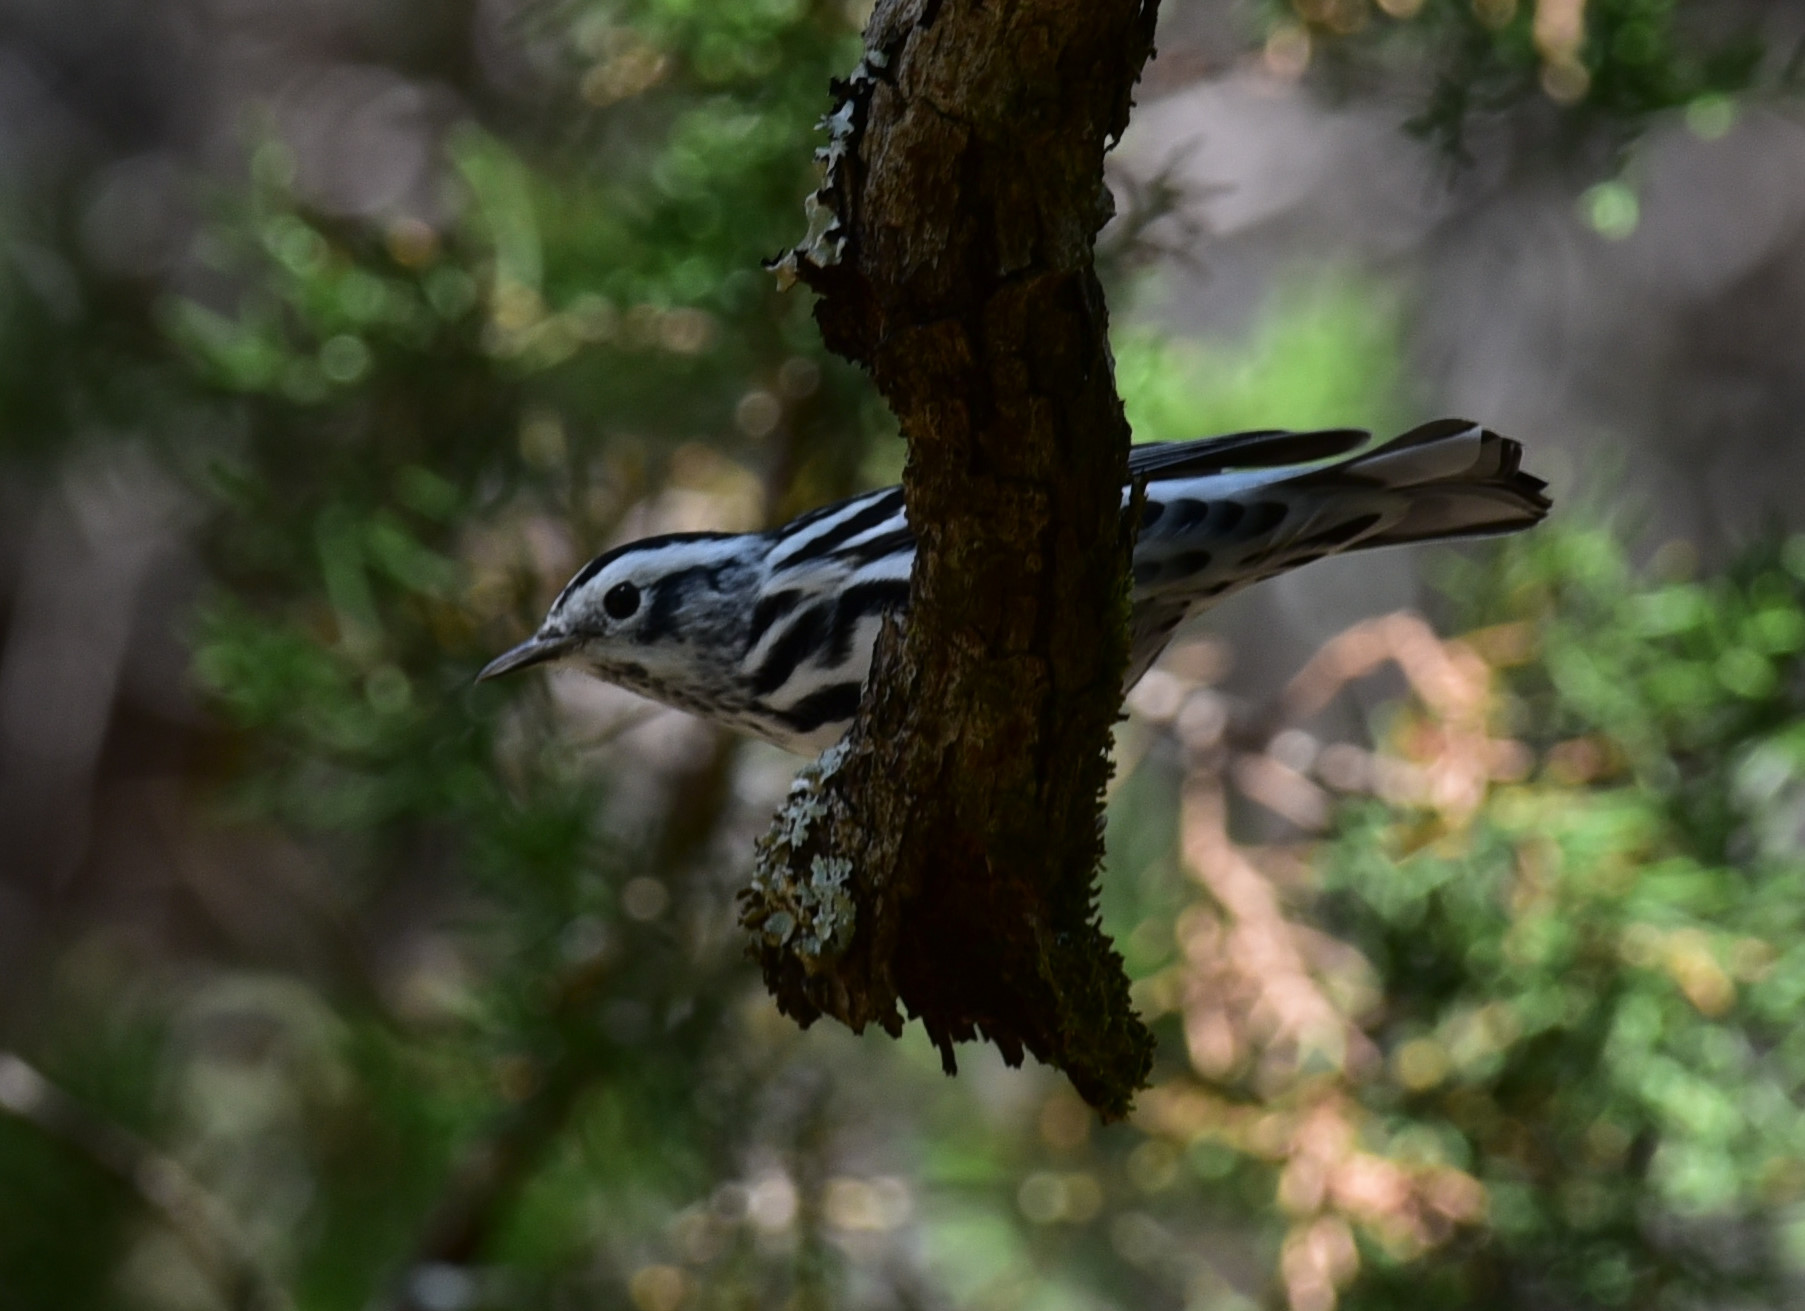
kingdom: Animalia
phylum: Chordata
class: Aves
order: Passeriformes
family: Parulidae
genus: Mniotilta
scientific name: Mniotilta varia
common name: Black-and-white warbler
